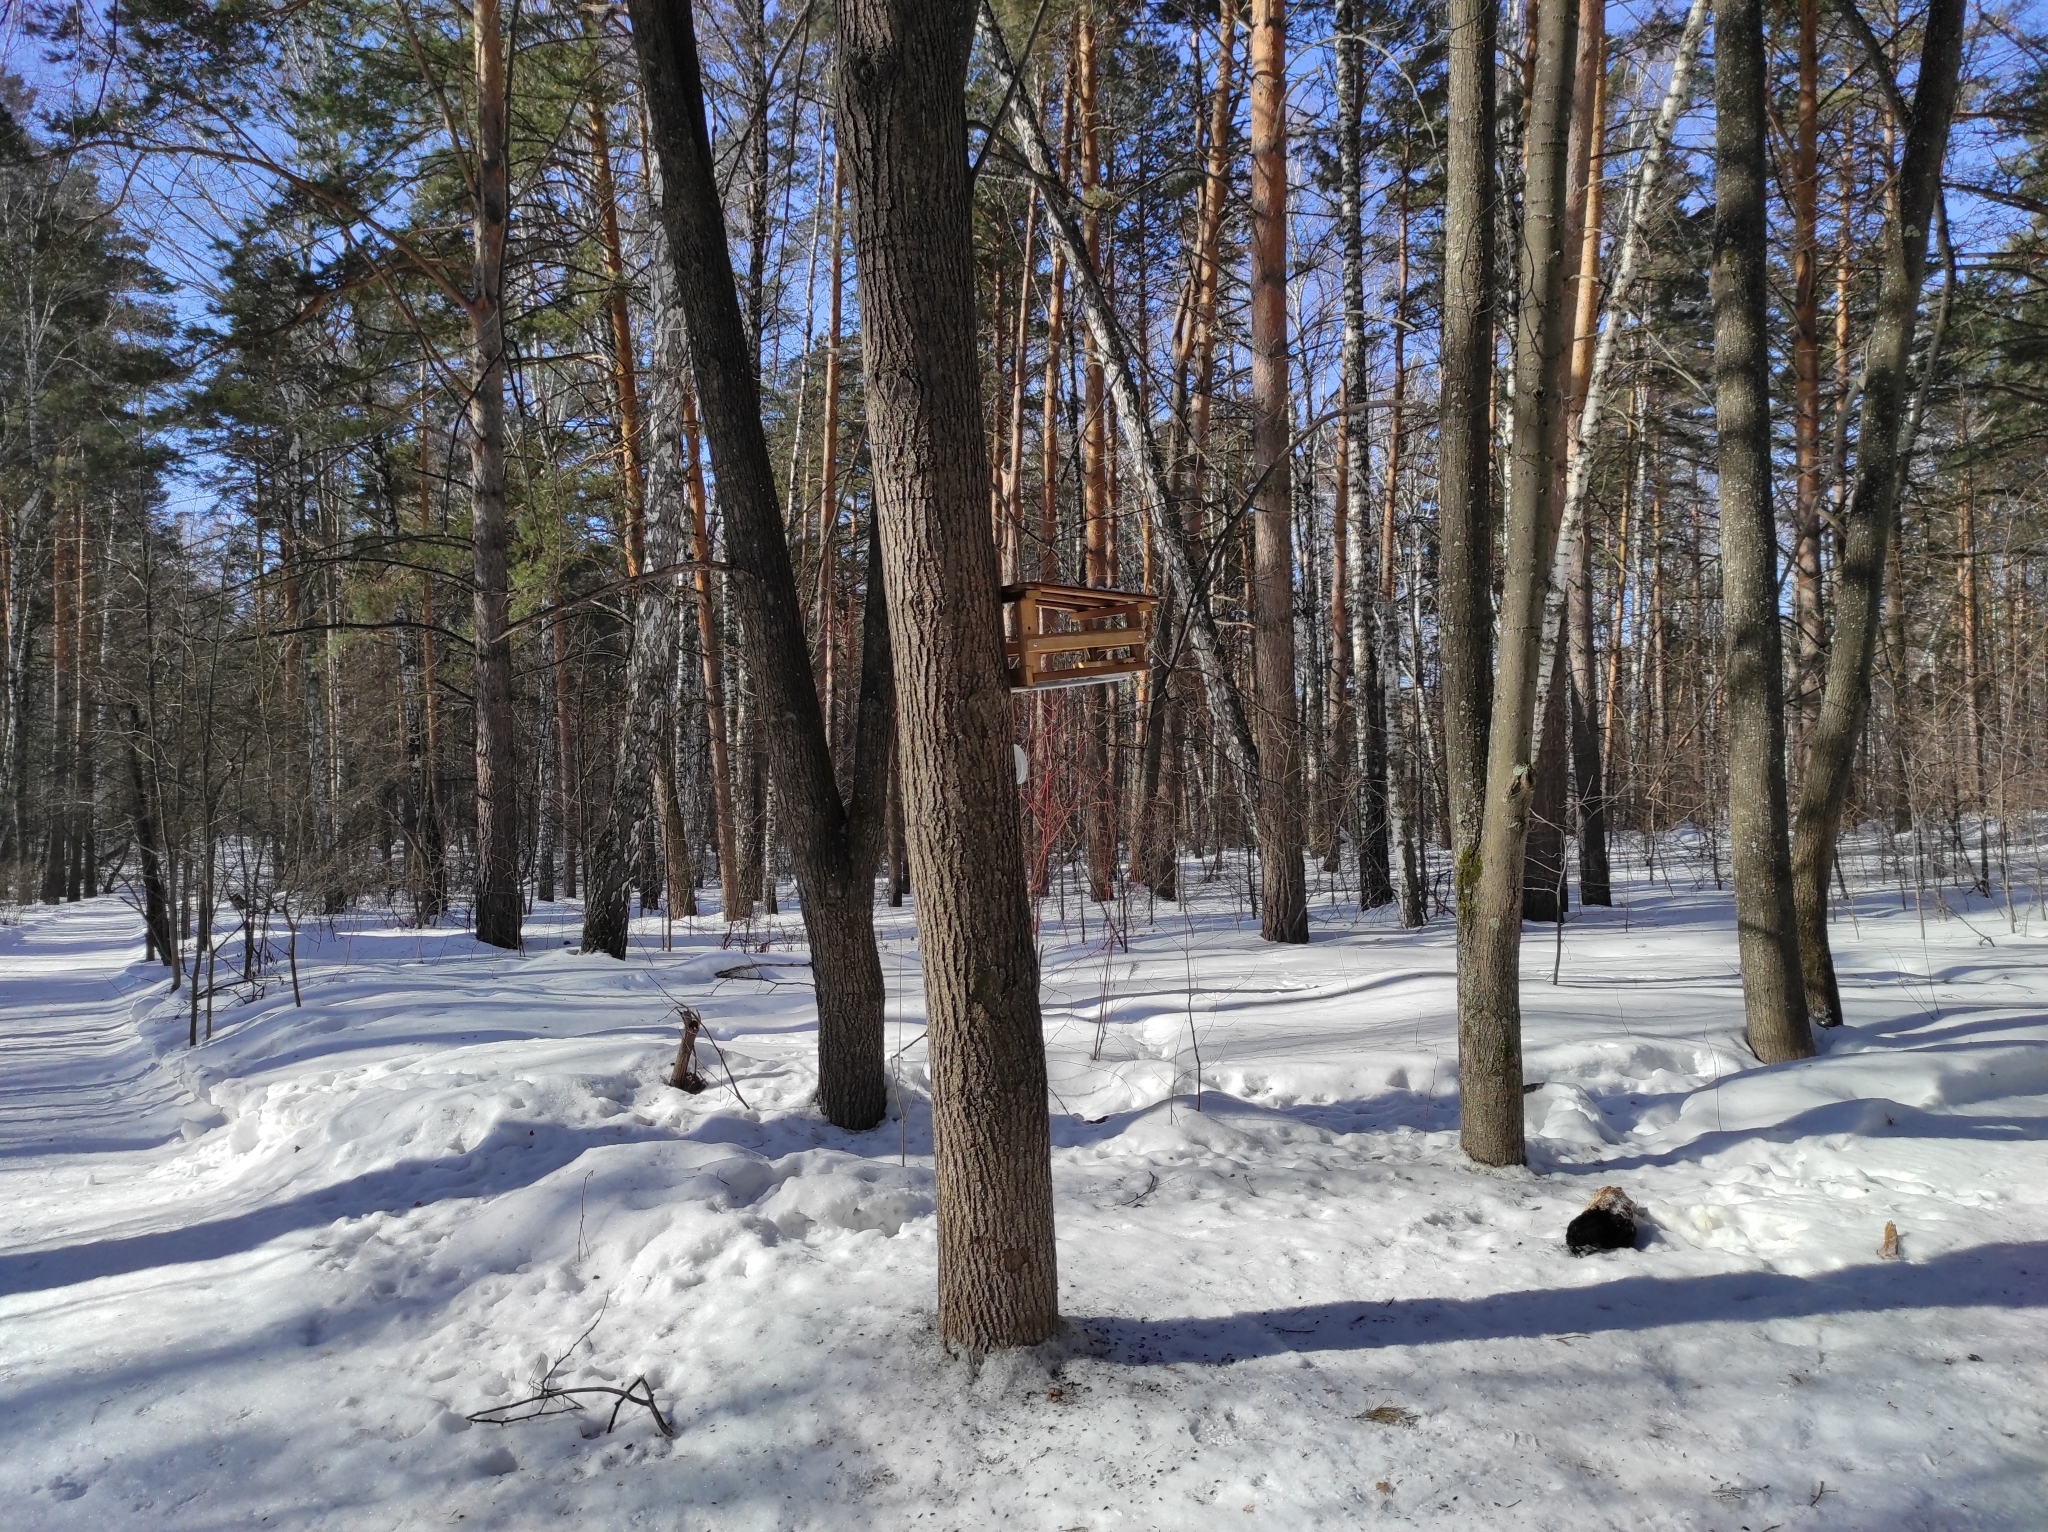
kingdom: Animalia
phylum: Chordata
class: Aves
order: Passeriformes
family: Paridae
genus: Parus
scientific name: Parus major
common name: Great tit
